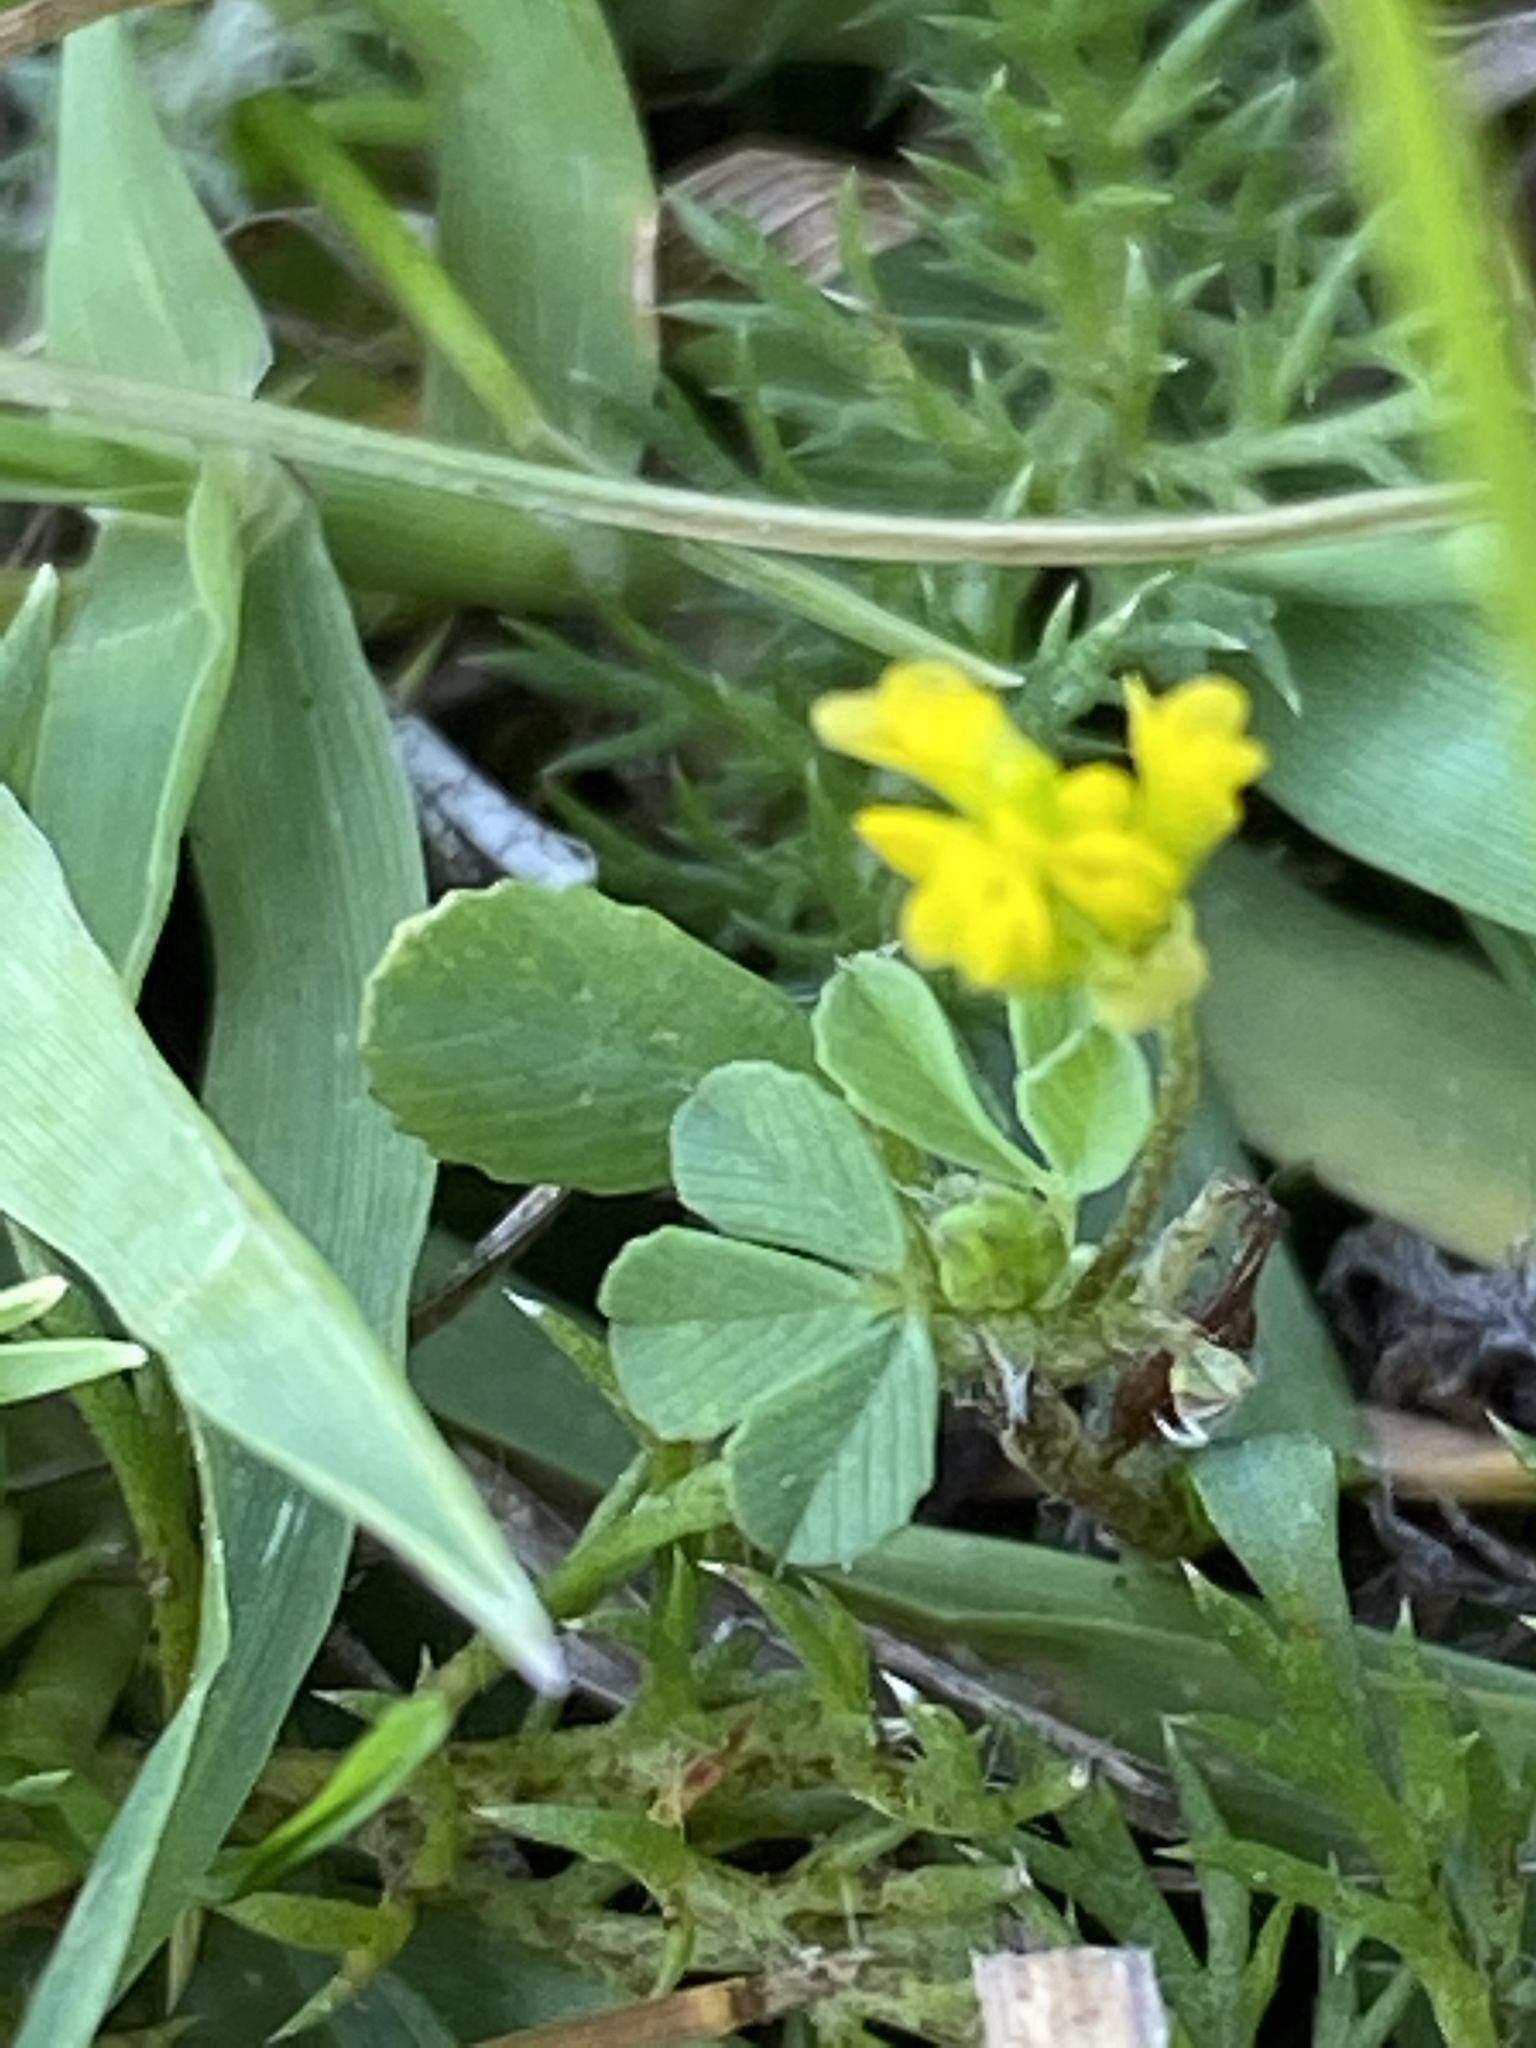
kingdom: Plantae
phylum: Tracheophyta
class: Magnoliopsida
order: Fabales
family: Fabaceae
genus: Trifolium
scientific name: Trifolium dubium
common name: Suckling clover
